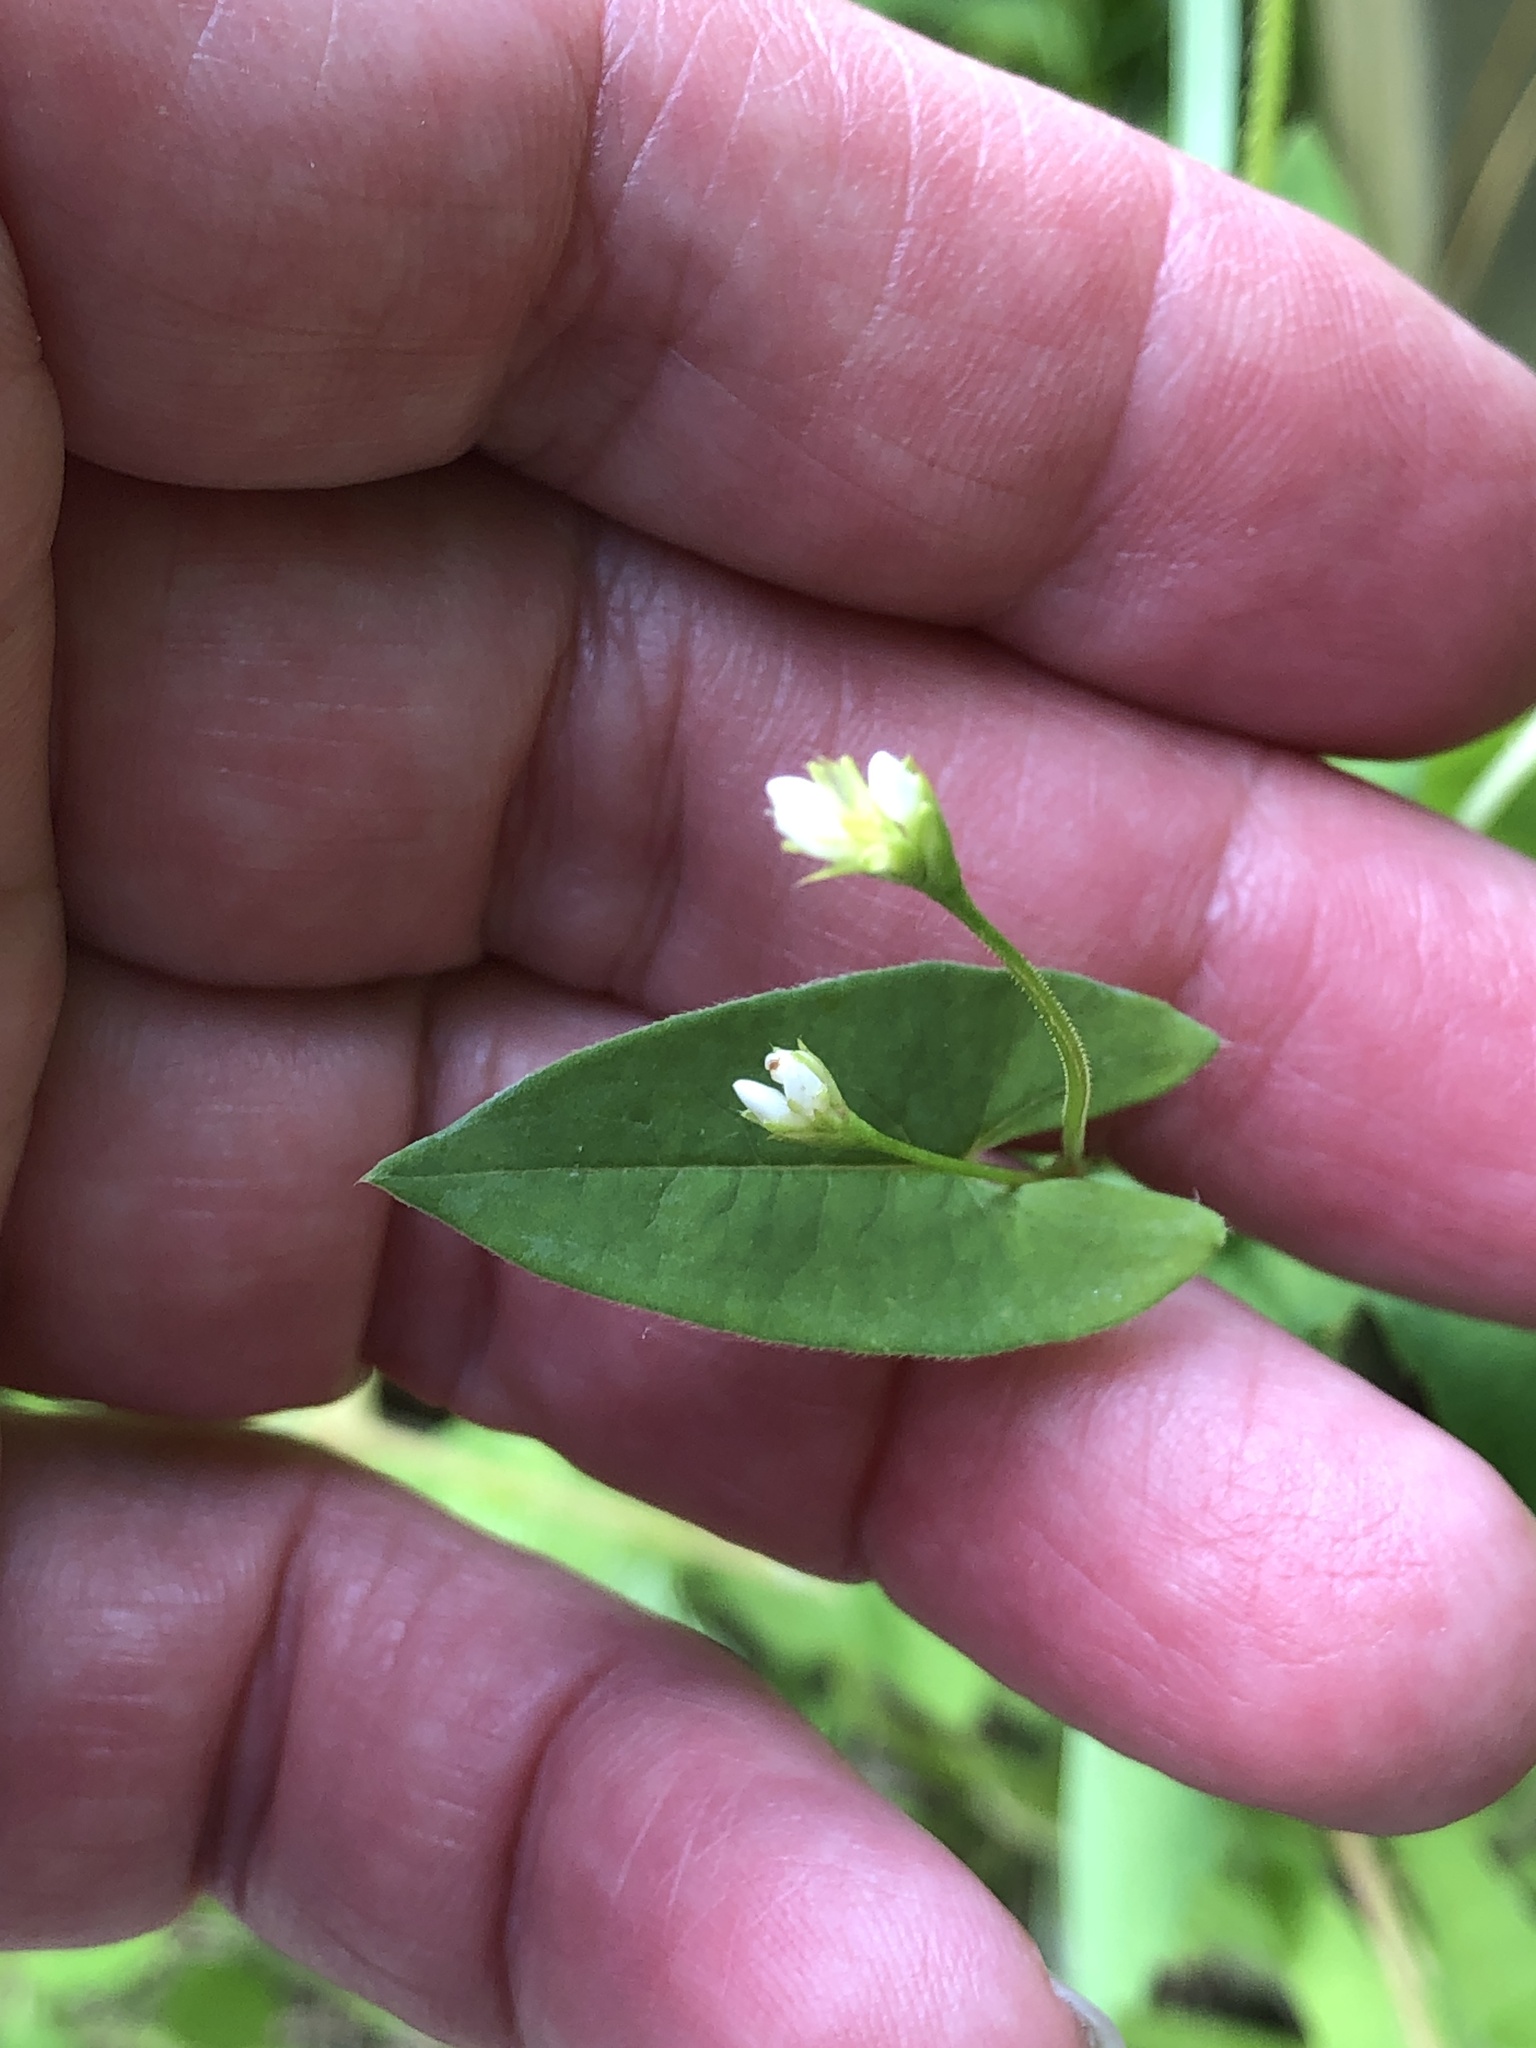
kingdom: Plantae
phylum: Tracheophyta
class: Magnoliopsida
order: Caryophyllales
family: Polygonaceae
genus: Persicaria
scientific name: Persicaria sagittata
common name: American tearthumb
